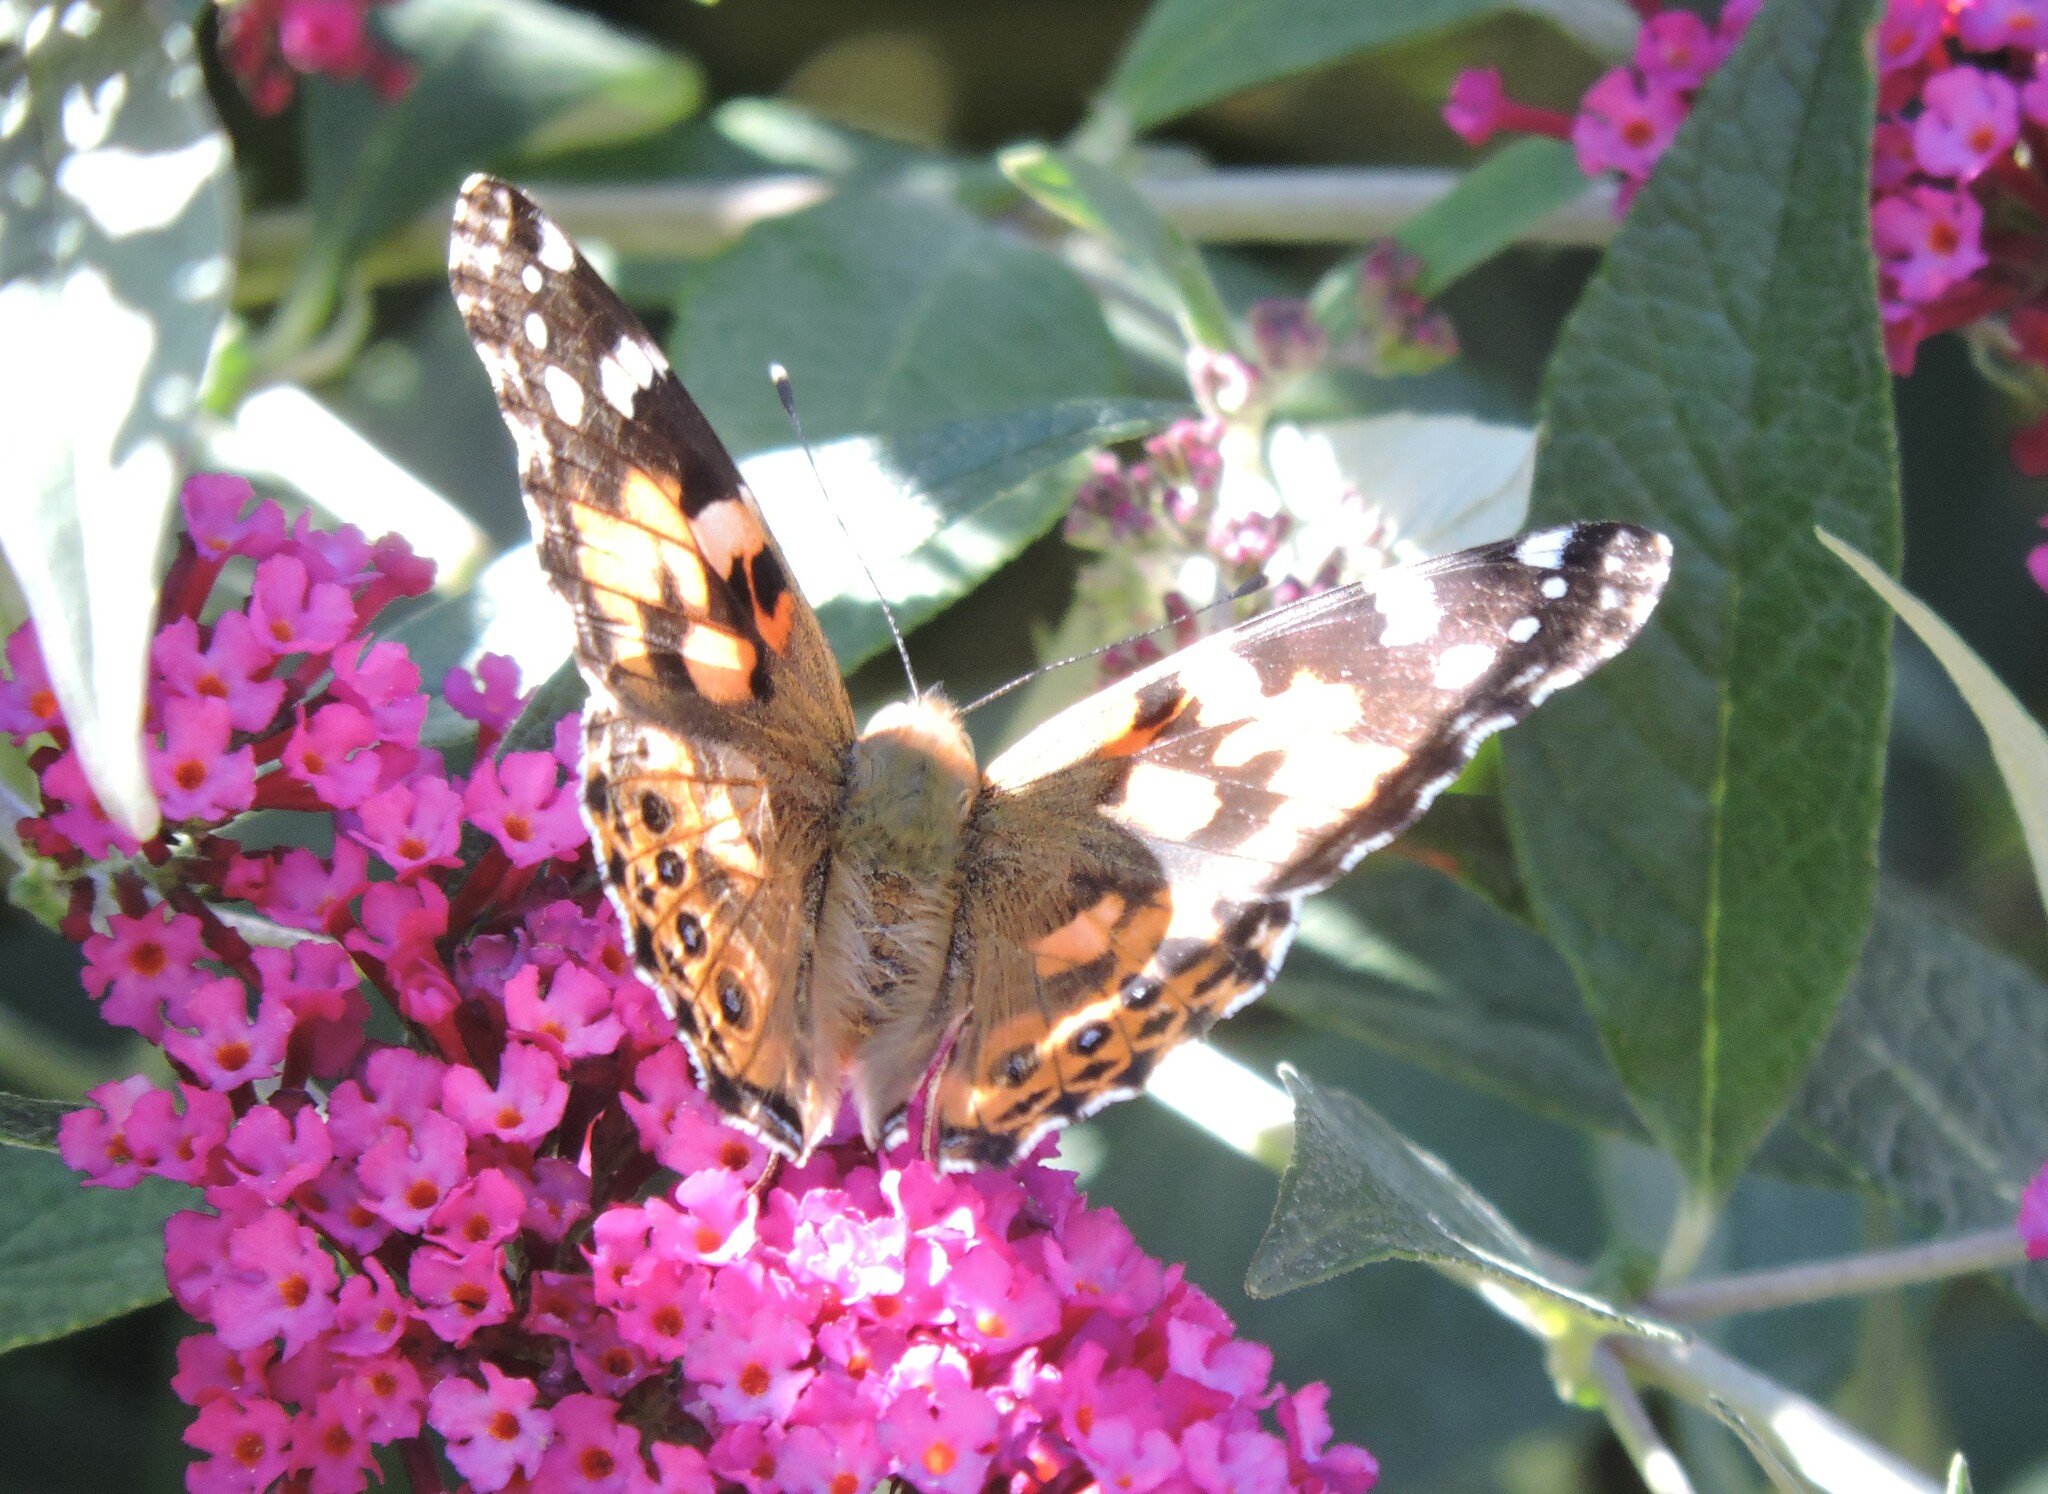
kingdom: Animalia
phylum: Arthropoda
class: Insecta
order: Lepidoptera
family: Nymphalidae
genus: Vanessa
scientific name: Vanessa cardui
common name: Painted lady
